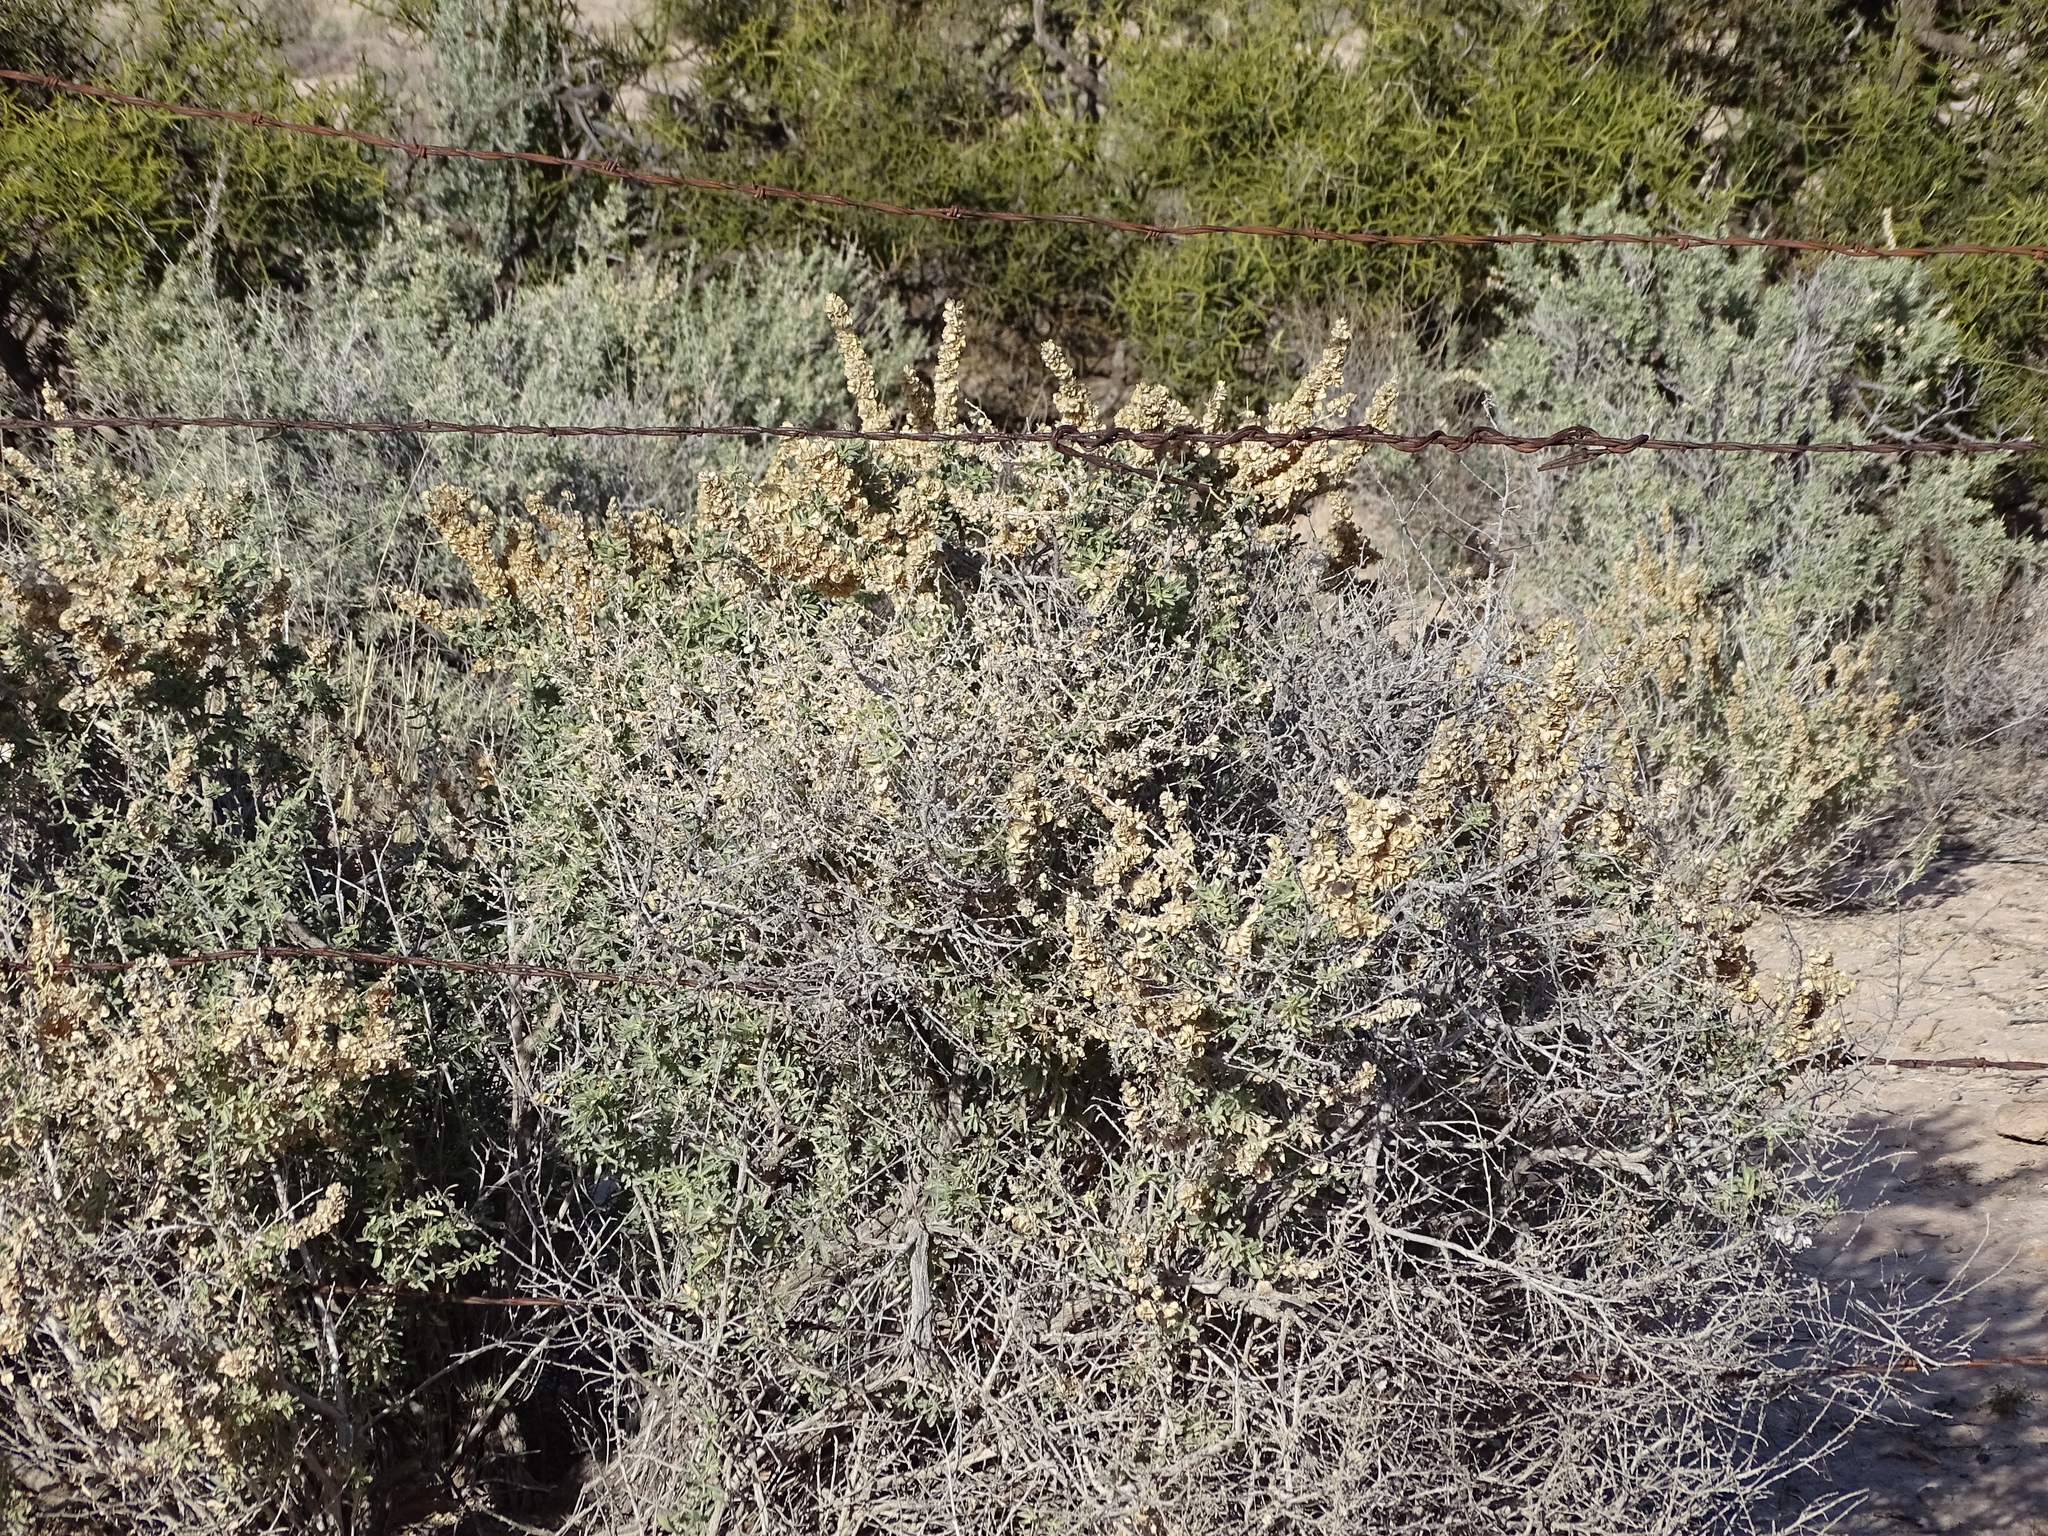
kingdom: Plantae
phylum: Tracheophyta
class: Magnoliopsida
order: Caryophyllales
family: Amaranthaceae
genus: Atriplex
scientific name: Atriplex canescens
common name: Four-wing saltbush
